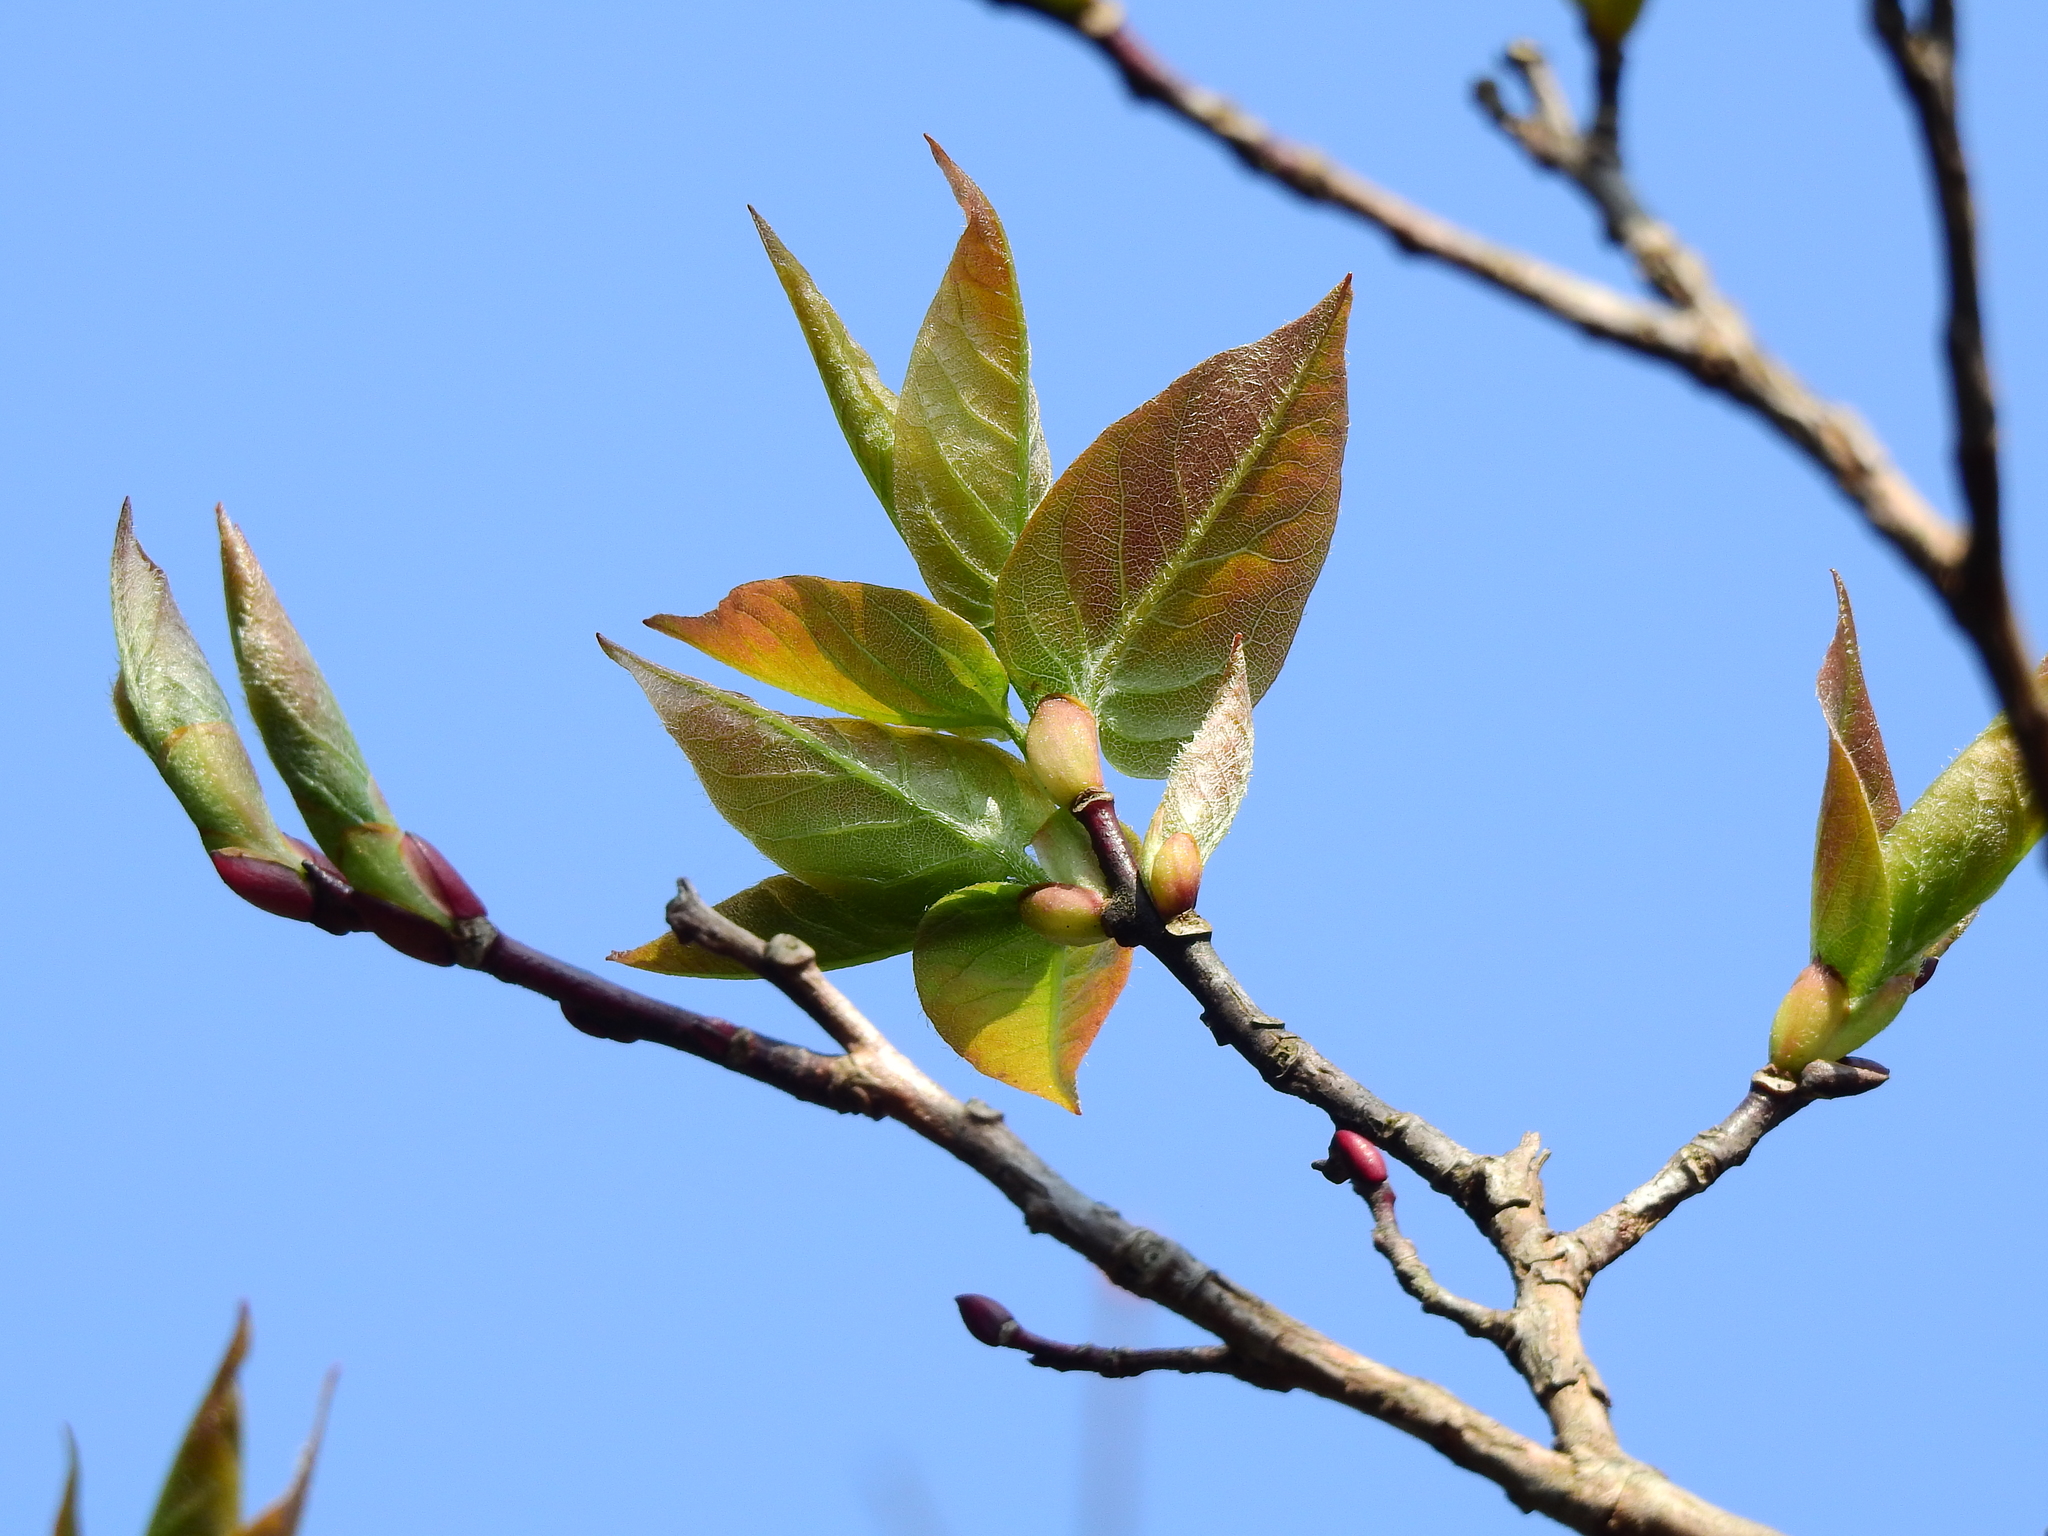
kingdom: Plantae
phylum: Tracheophyta
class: Magnoliopsida
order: Ericales
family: Ericaceae
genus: Lyonia
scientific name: Lyonia ovalifolia
